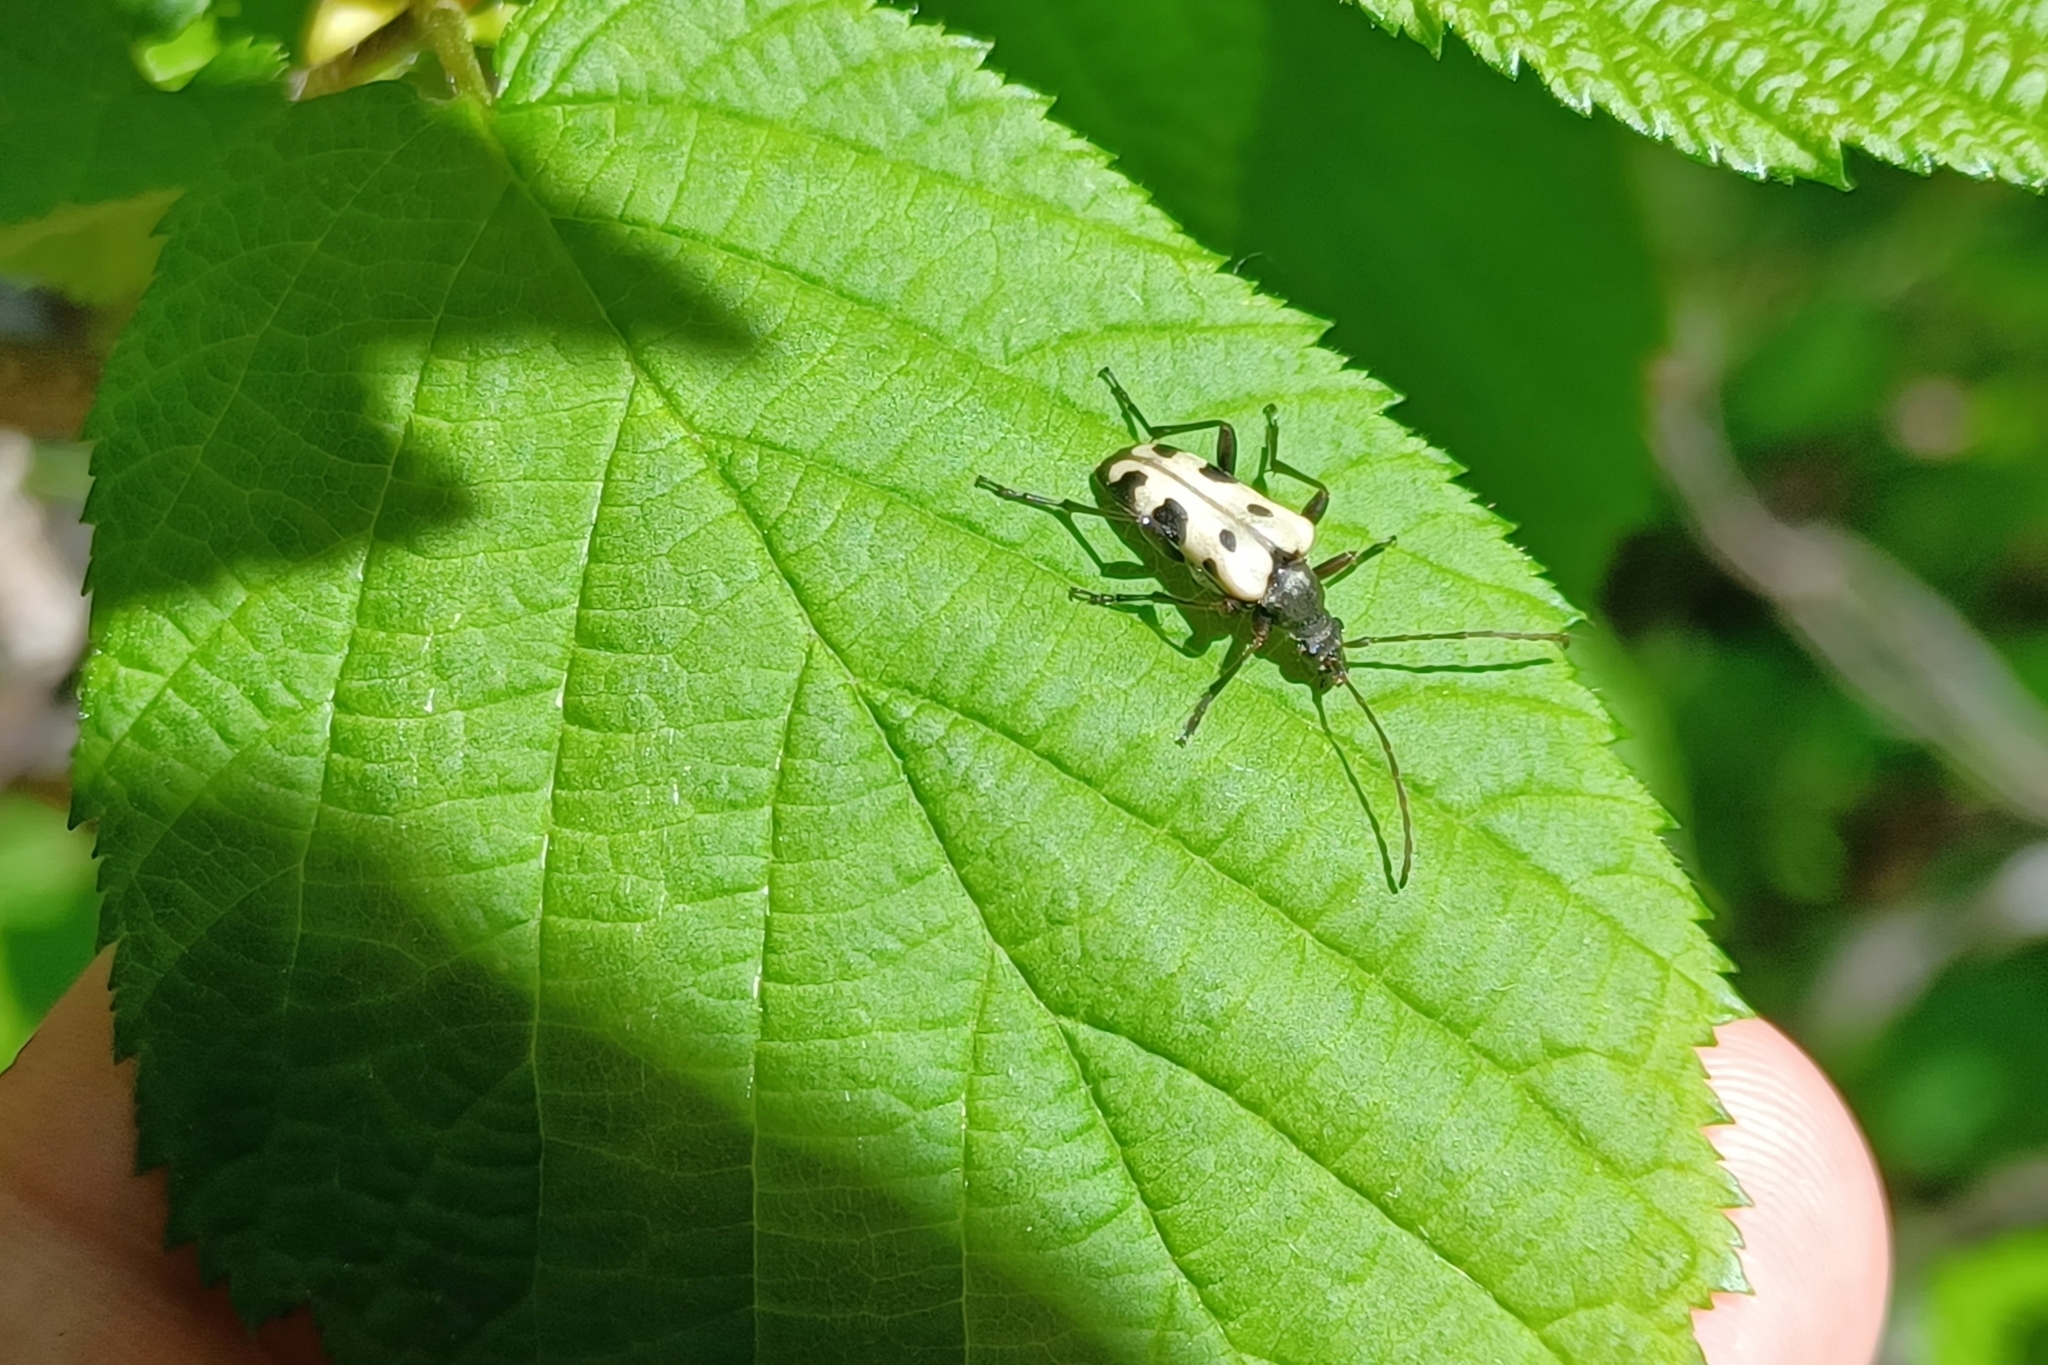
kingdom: Animalia
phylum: Arthropoda
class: Insecta
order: Coleoptera
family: Cerambycidae
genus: Evodinus
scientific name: Evodinus monticola
